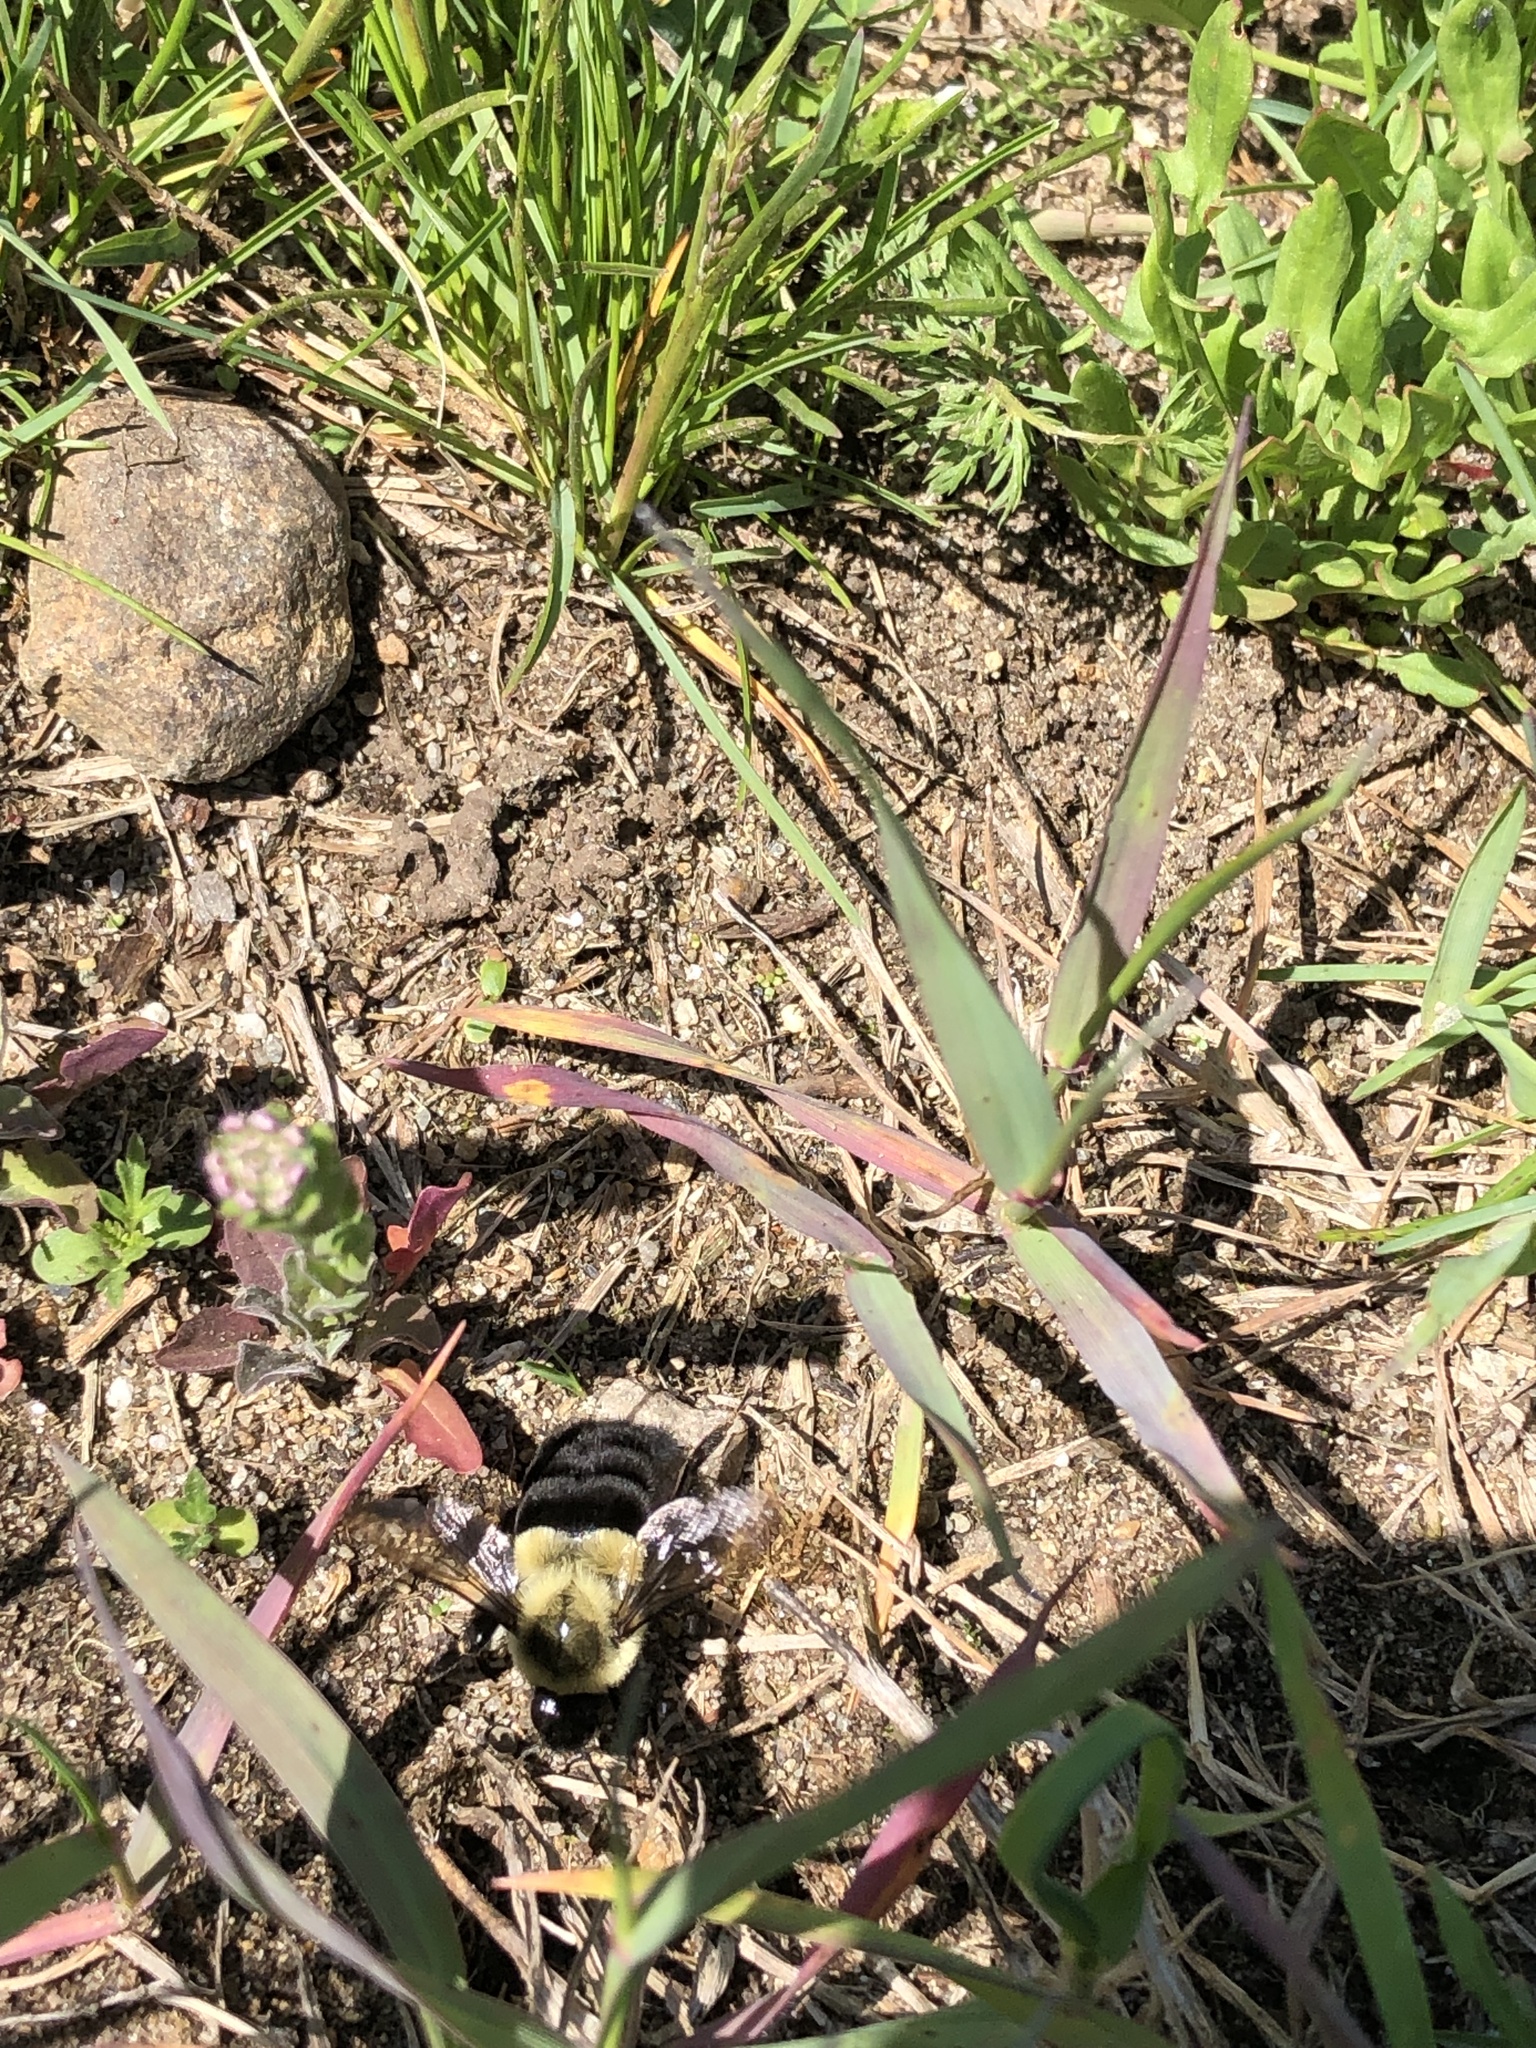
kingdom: Animalia
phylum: Arthropoda
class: Insecta
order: Hymenoptera
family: Apidae
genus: Bombus
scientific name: Bombus impatiens
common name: Common eastern bumble bee
